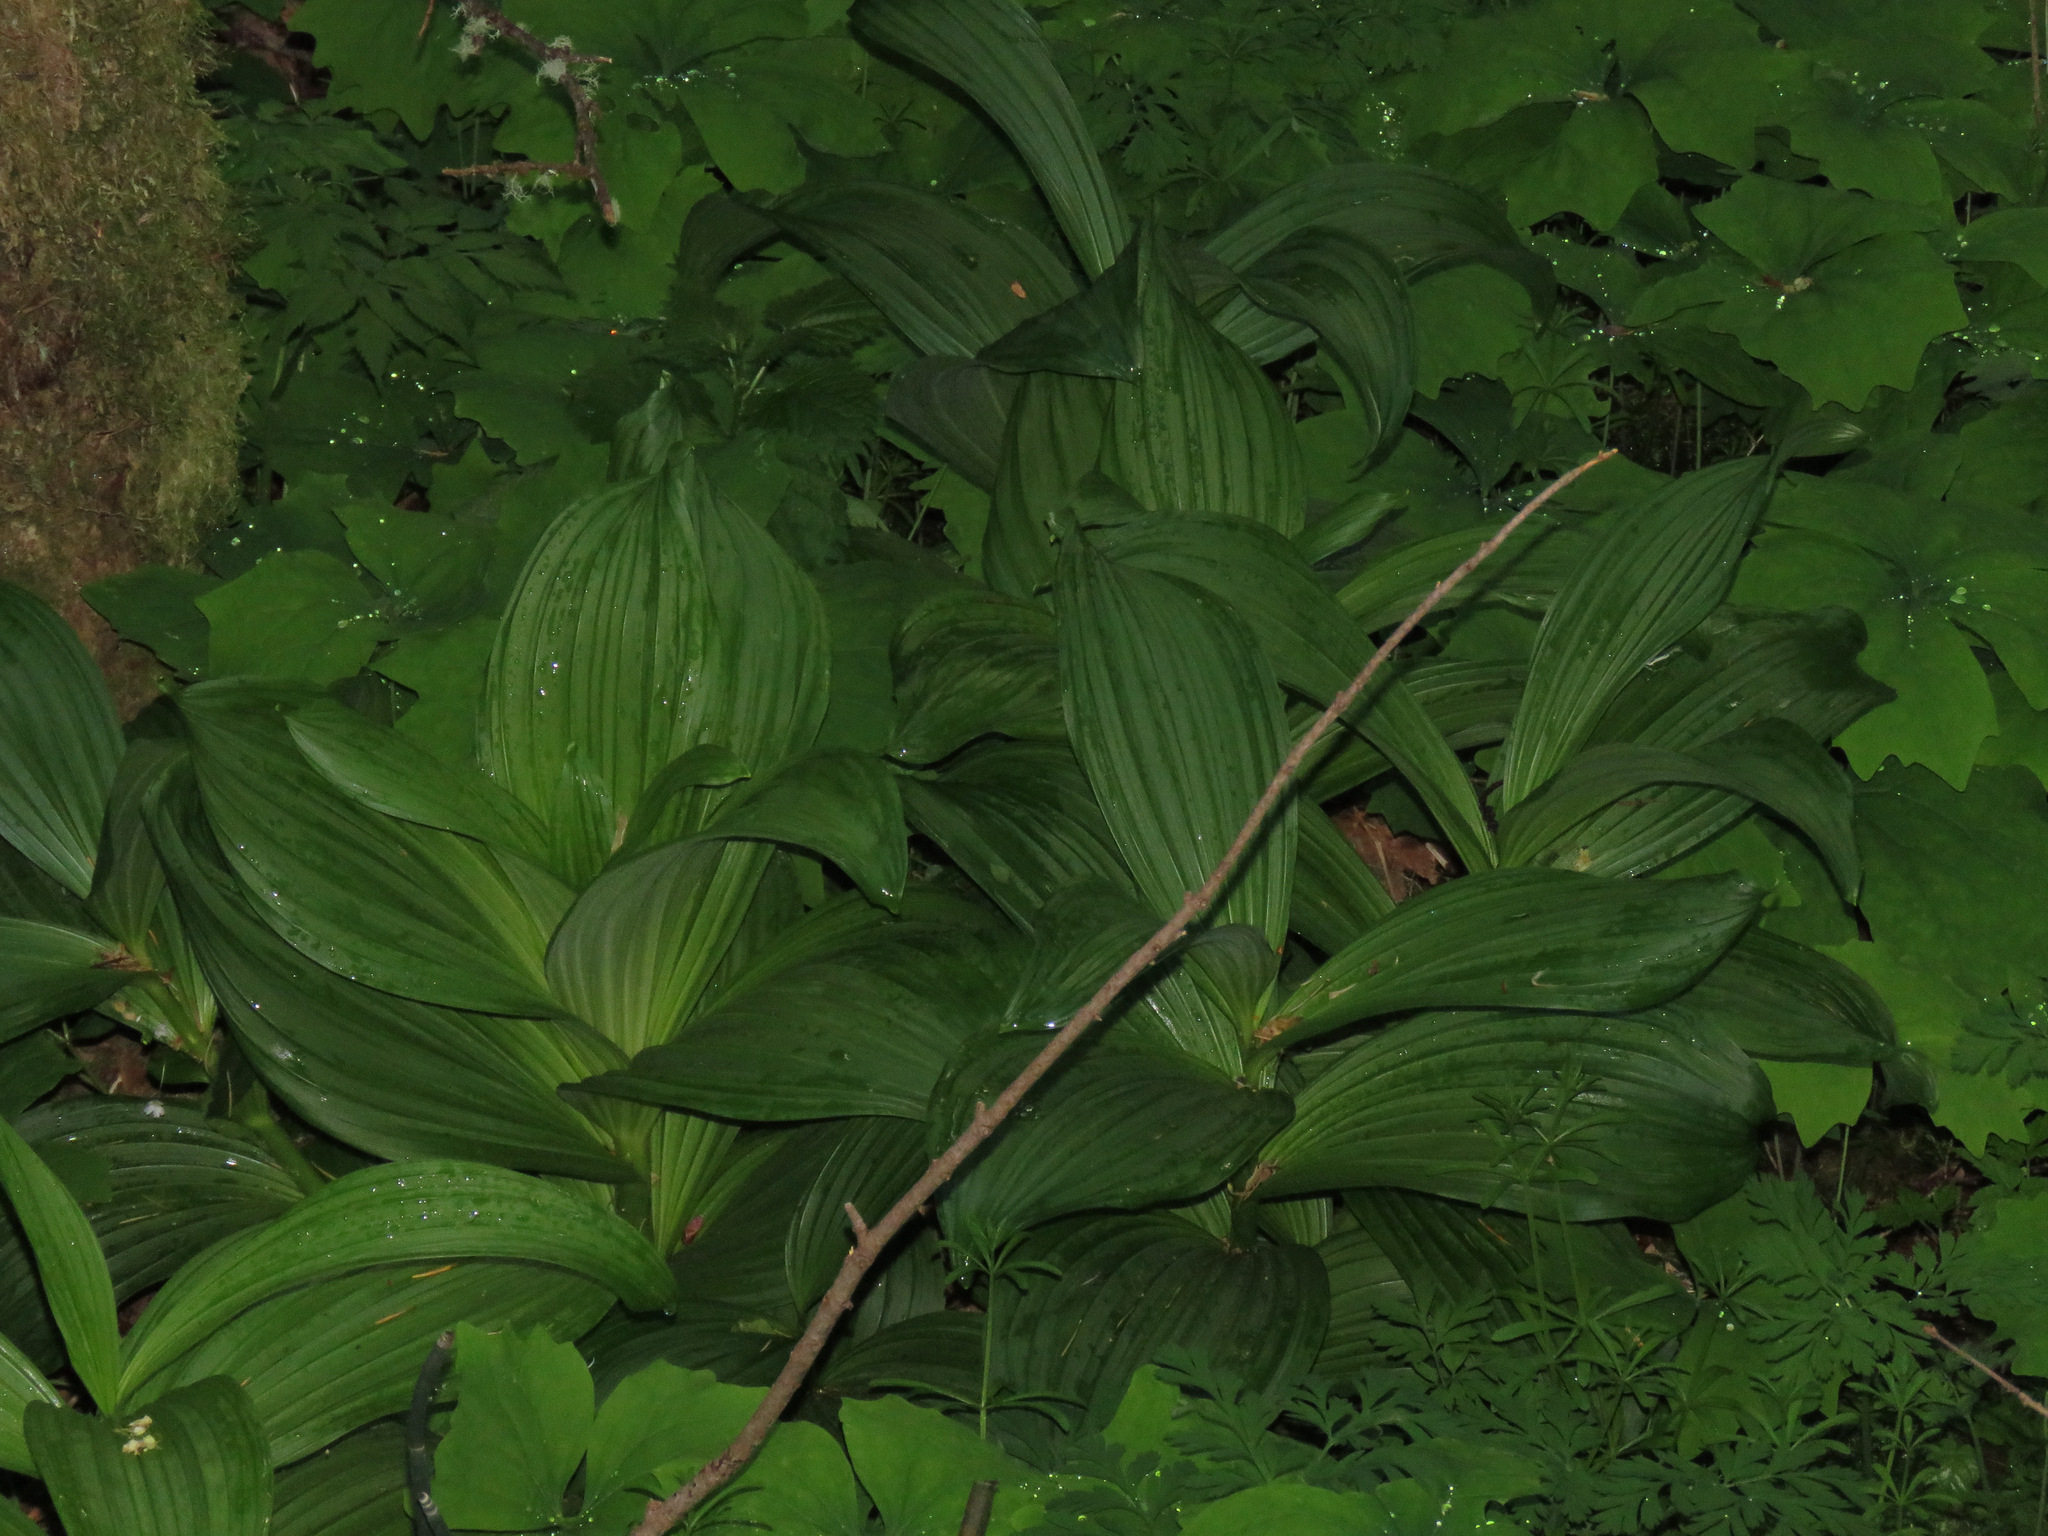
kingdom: Plantae
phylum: Tracheophyta
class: Liliopsida
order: Liliales
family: Melanthiaceae
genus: Veratrum
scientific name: Veratrum viride
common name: American false hellebore
